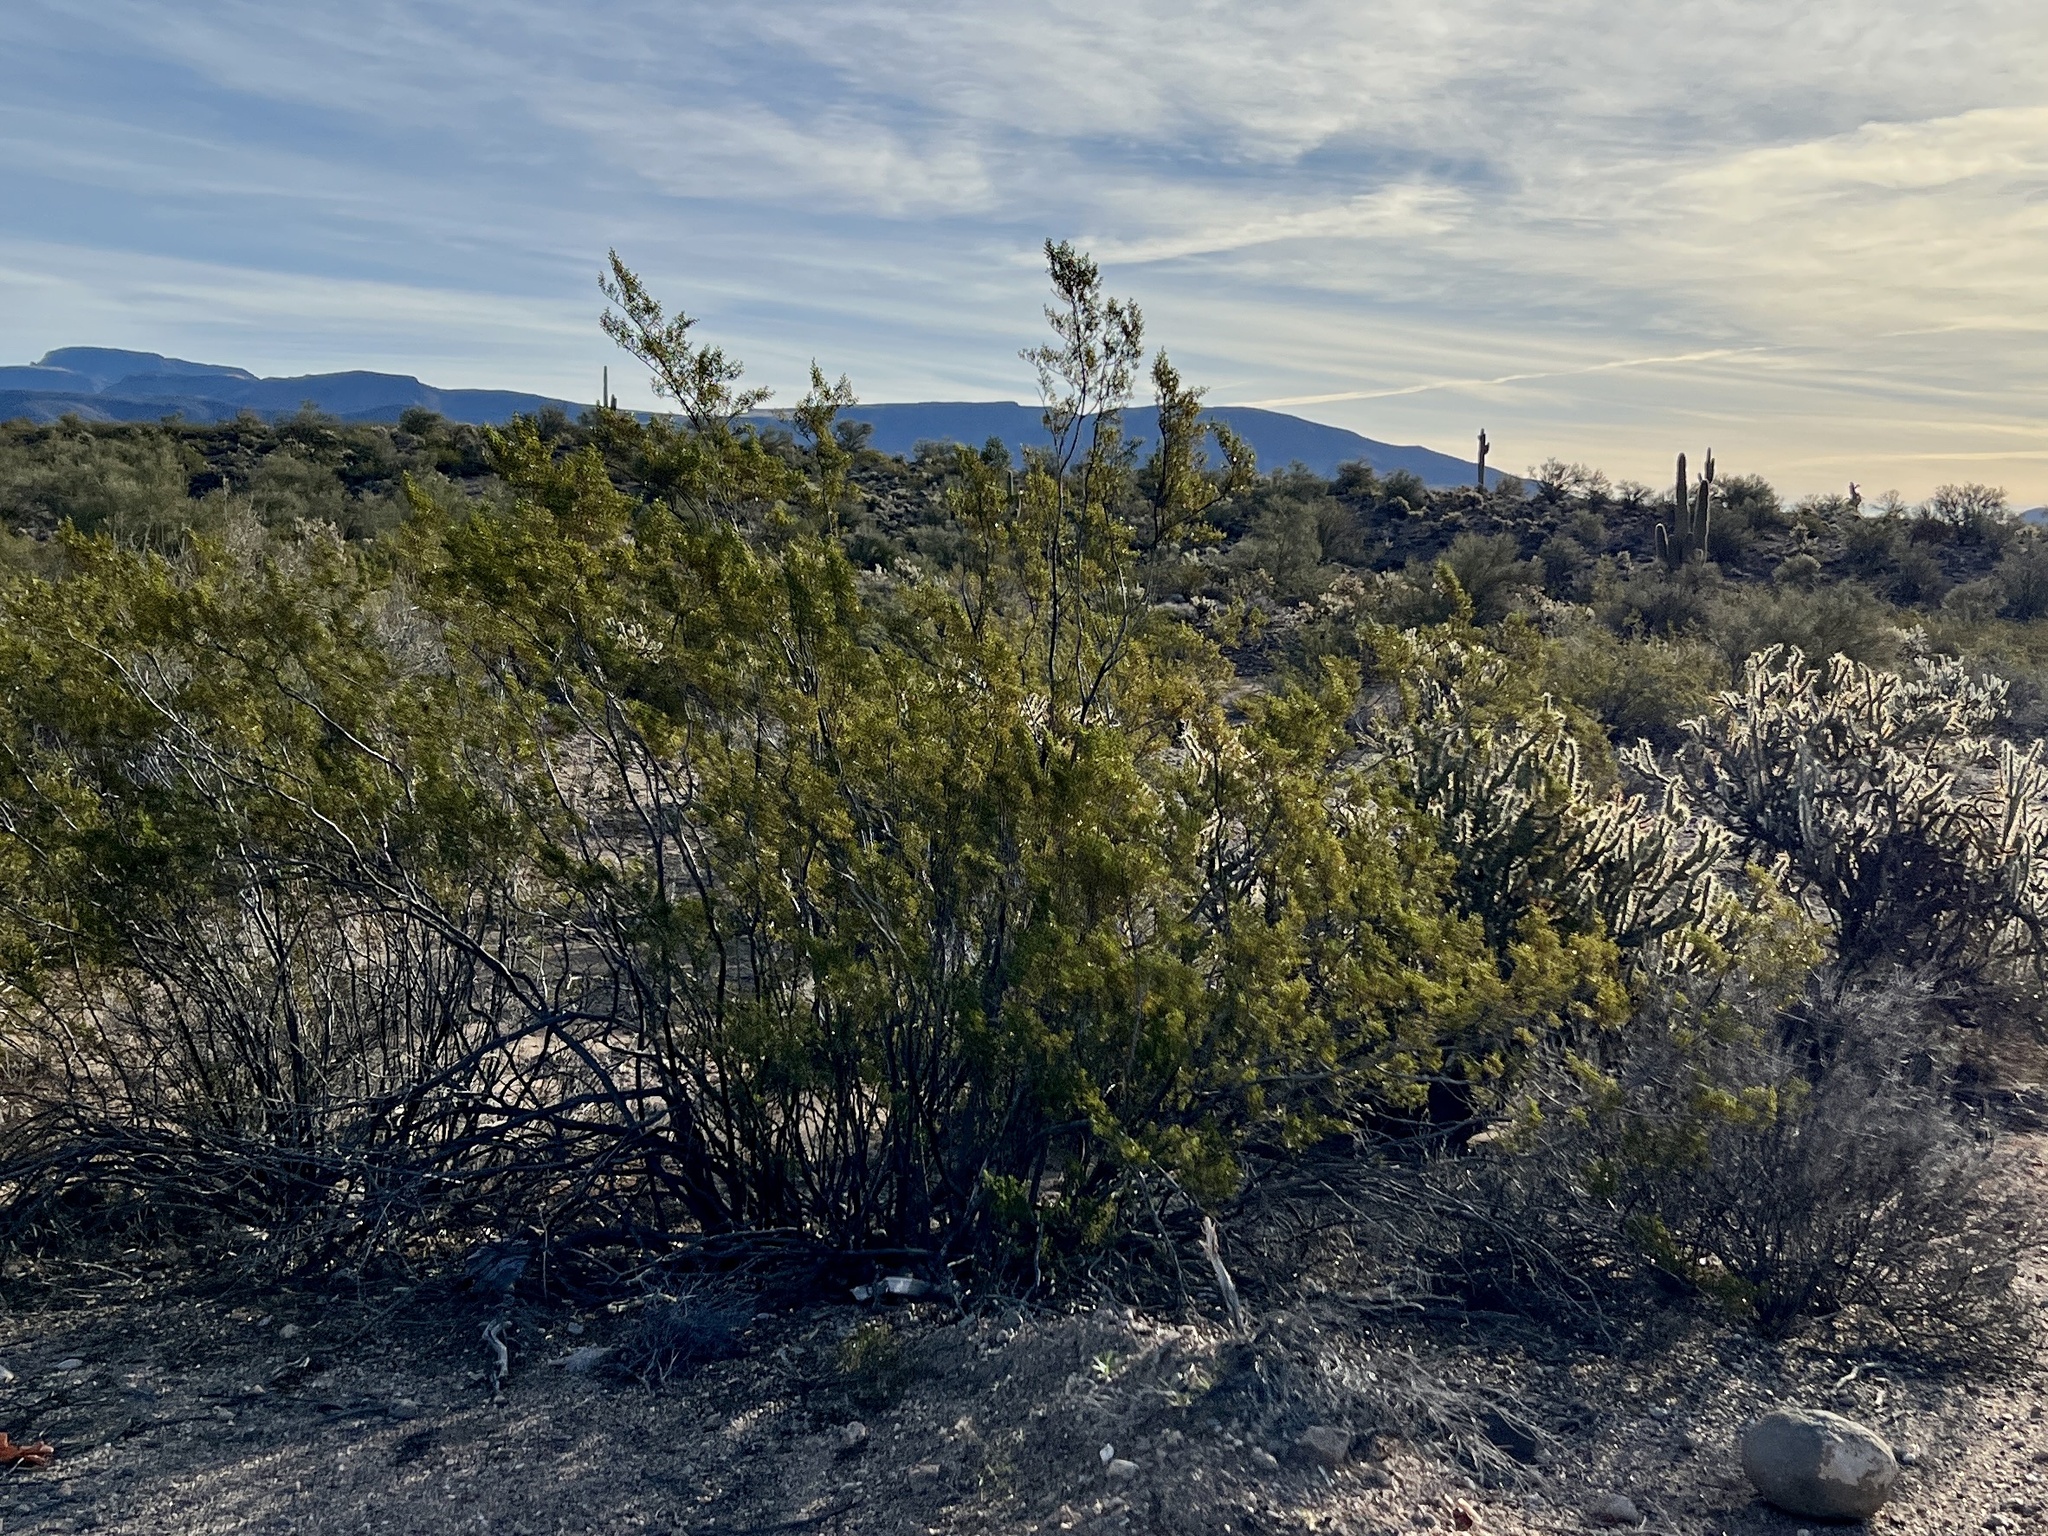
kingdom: Plantae
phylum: Tracheophyta
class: Magnoliopsida
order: Zygophyllales
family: Zygophyllaceae
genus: Larrea
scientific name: Larrea tridentata
